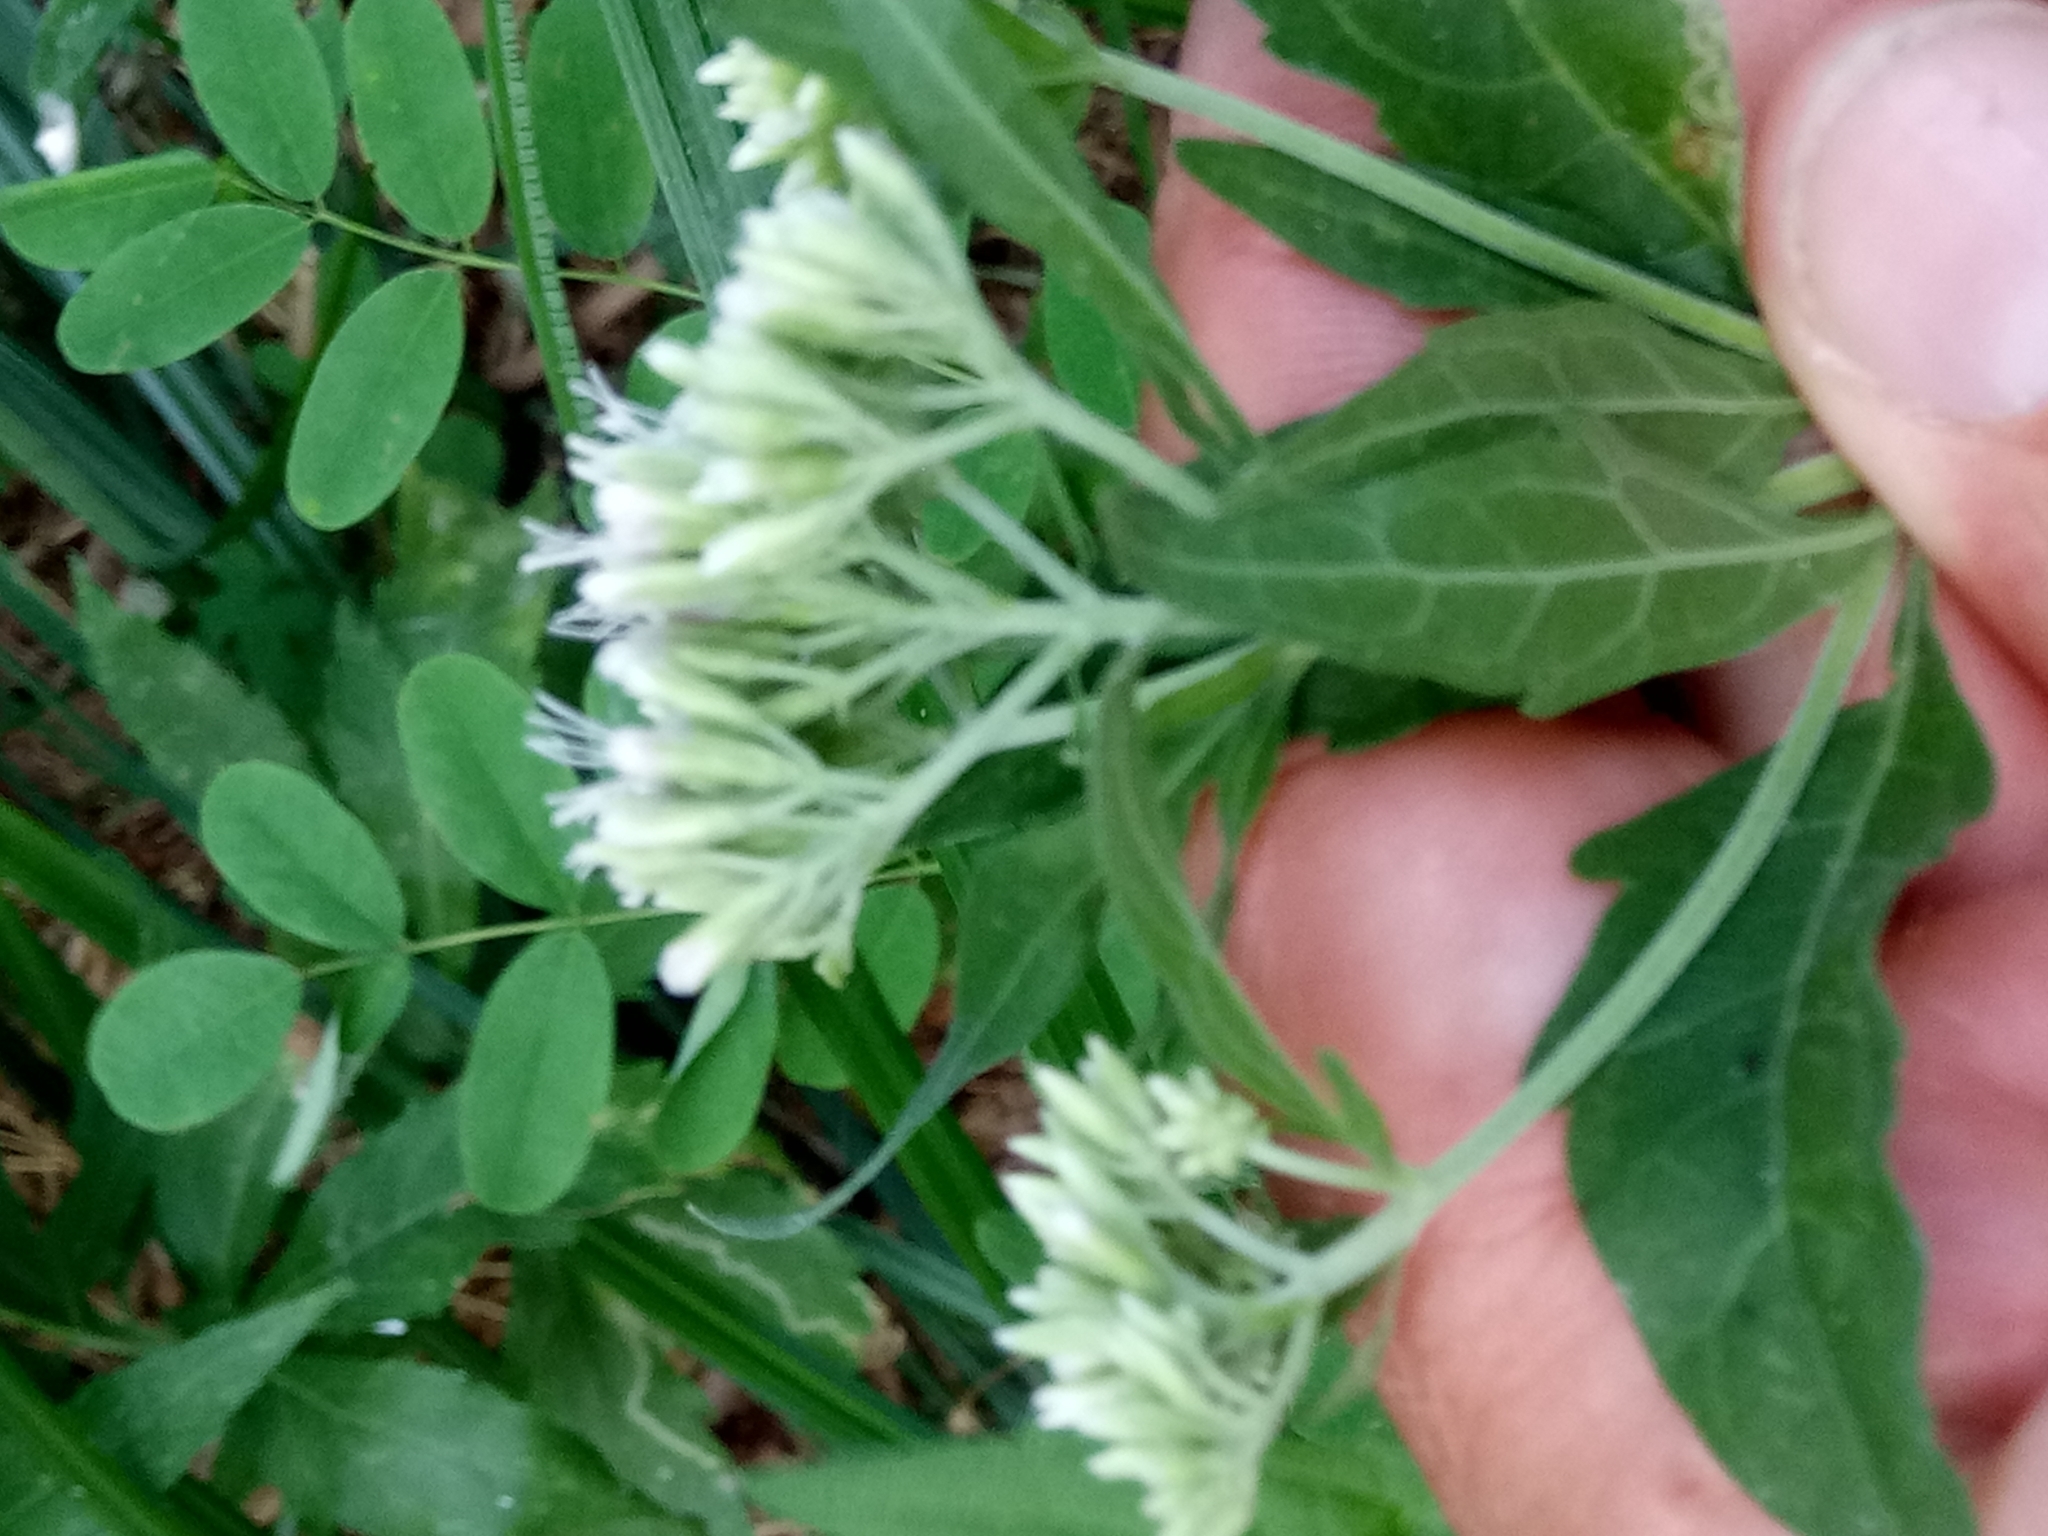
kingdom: Plantae
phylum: Tracheophyta
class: Magnoliopsida
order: Asterales
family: Asteraceae
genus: Eupatorium
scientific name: Eupatorium cannabinum
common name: Hemp-agrimony
